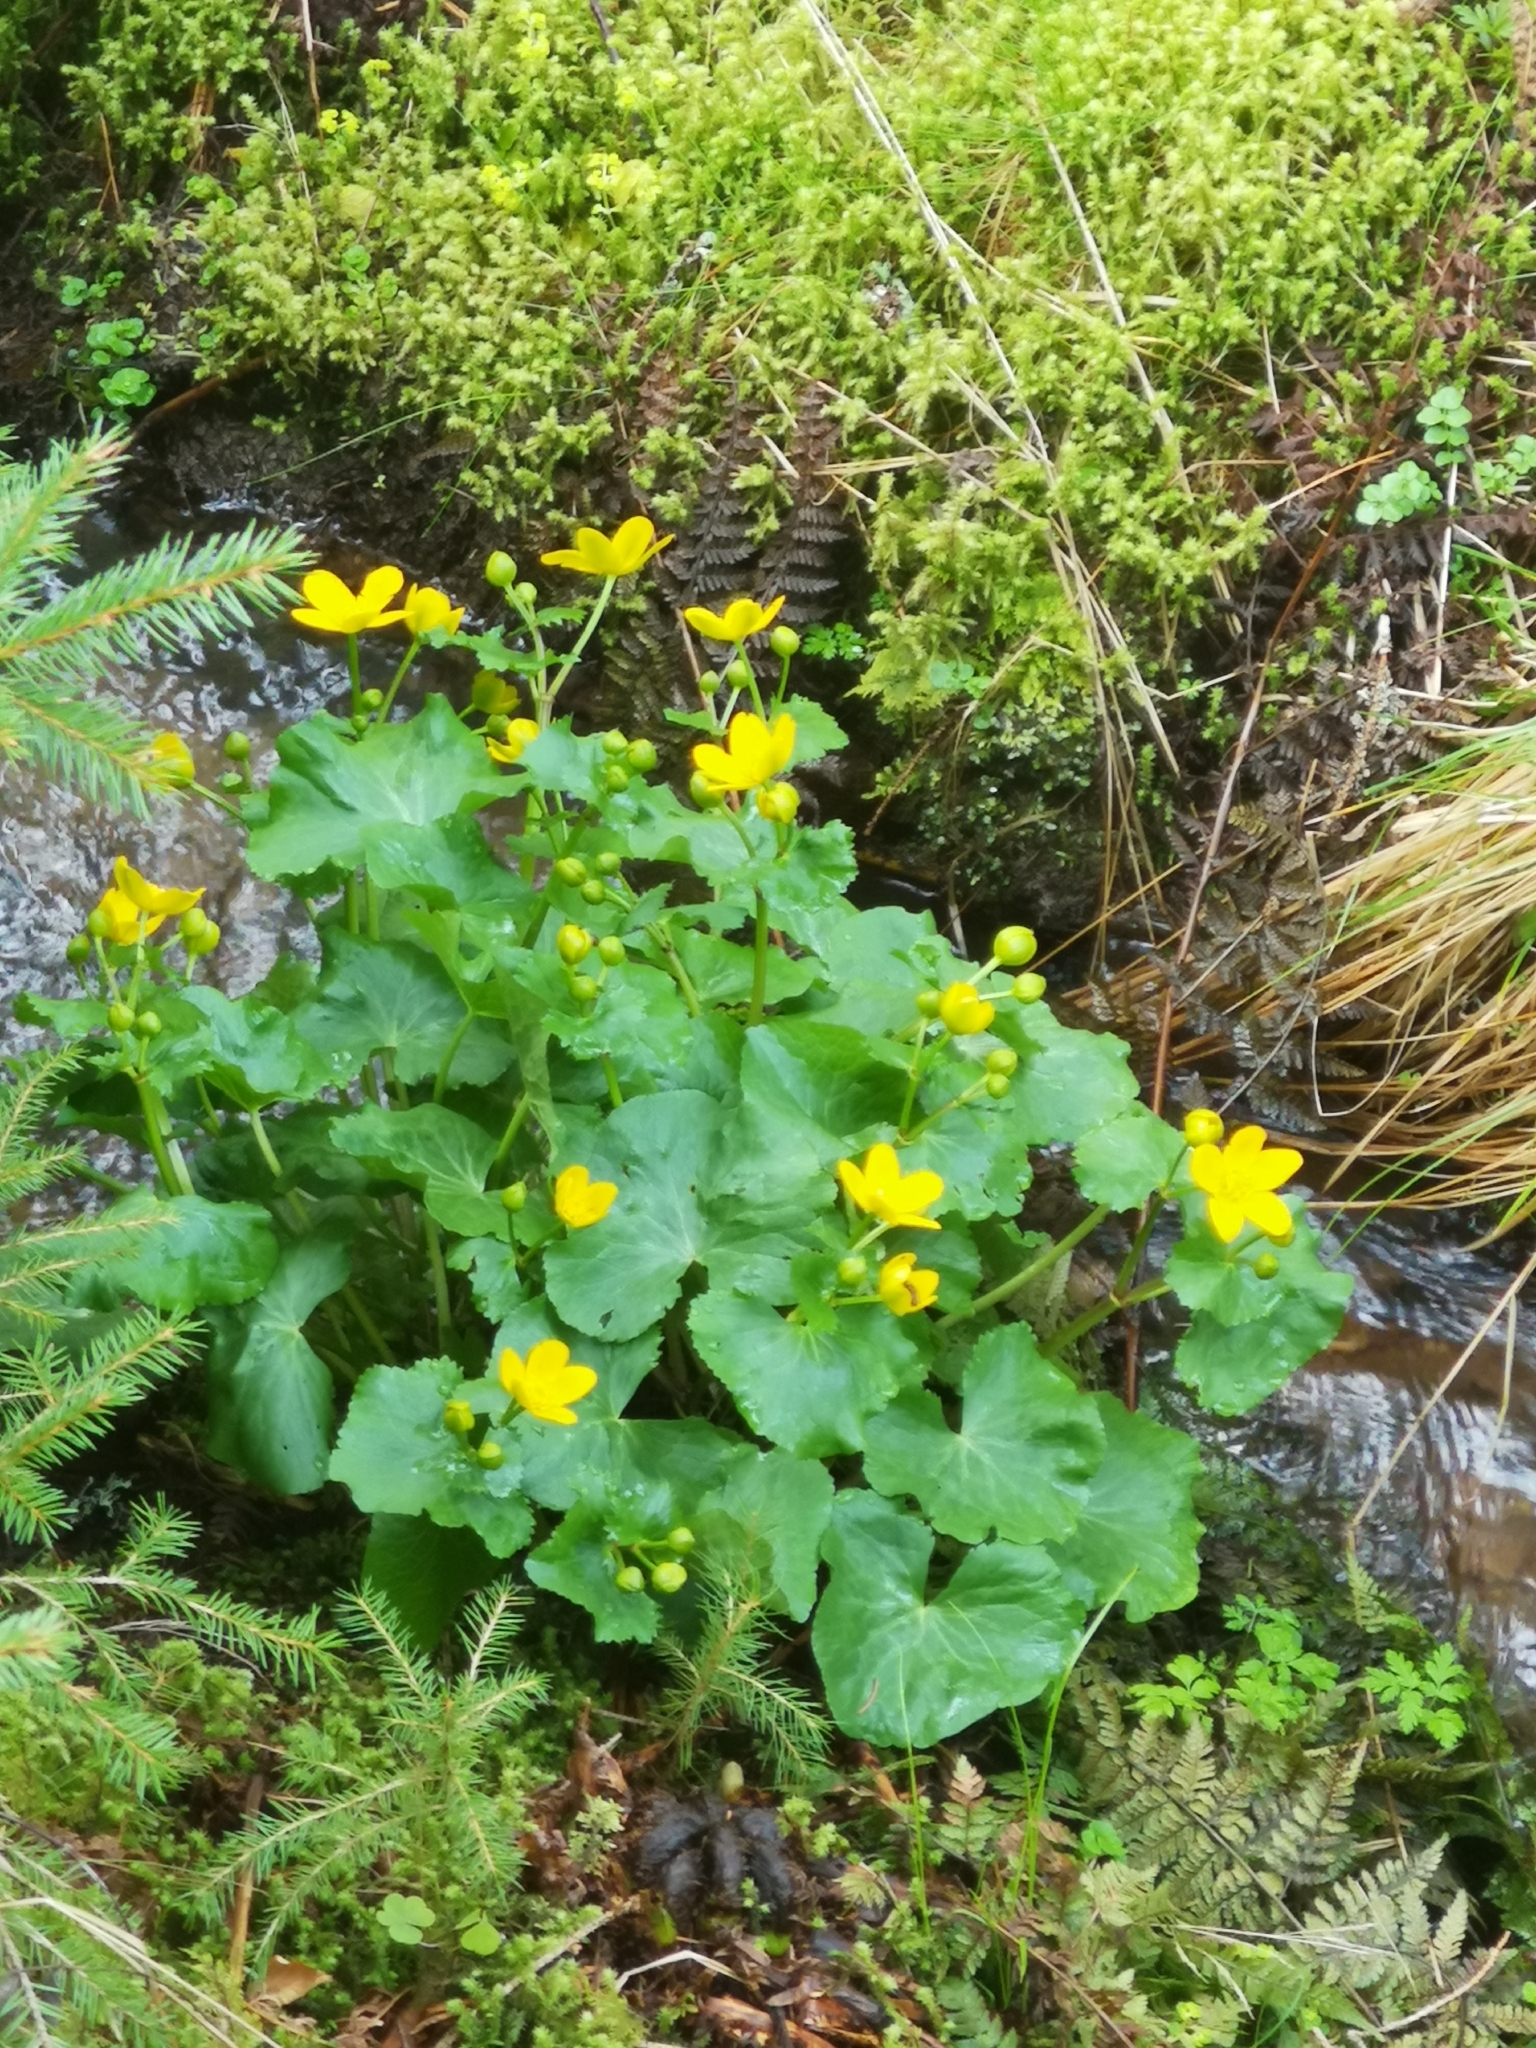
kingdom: Plantae
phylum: Tracheophyta
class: Magnoliopsida
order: Ranunculales
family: Ranunculaceae
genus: Caltha
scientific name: Caltha palustris
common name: Marsh marigold
